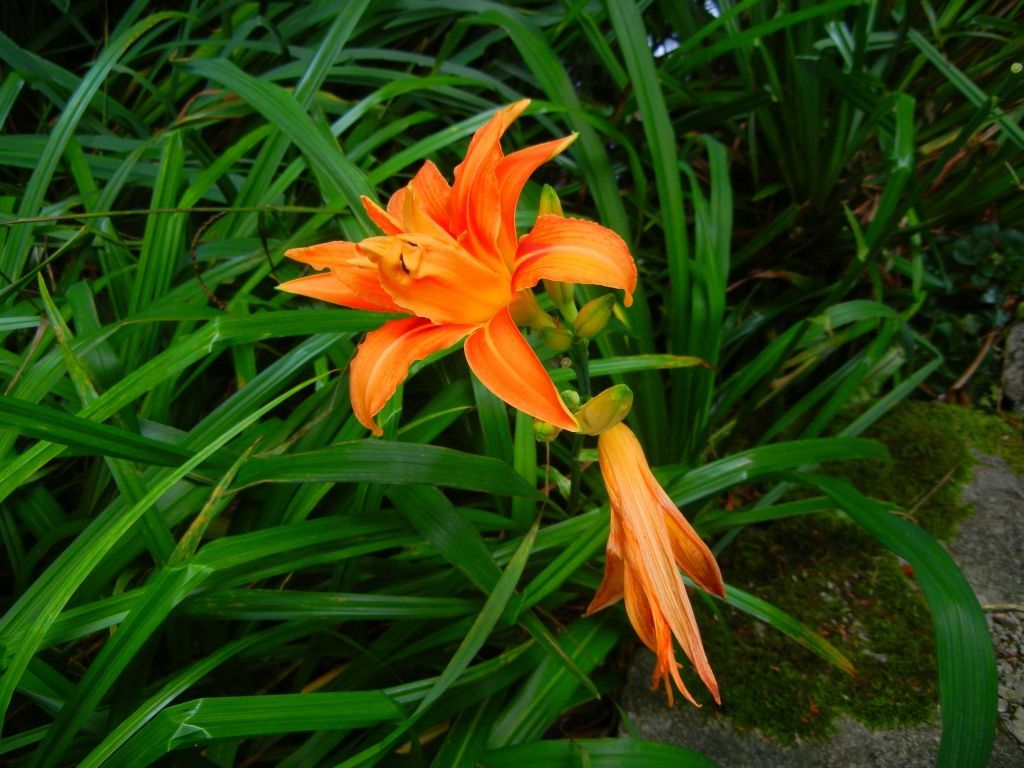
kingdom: Plantae
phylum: Tracheophyta
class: Liliopsida
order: Asparagales
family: Asphodelaceae
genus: Hemerocallis
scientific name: Hemerocallis fulva
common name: Orange day-lily
